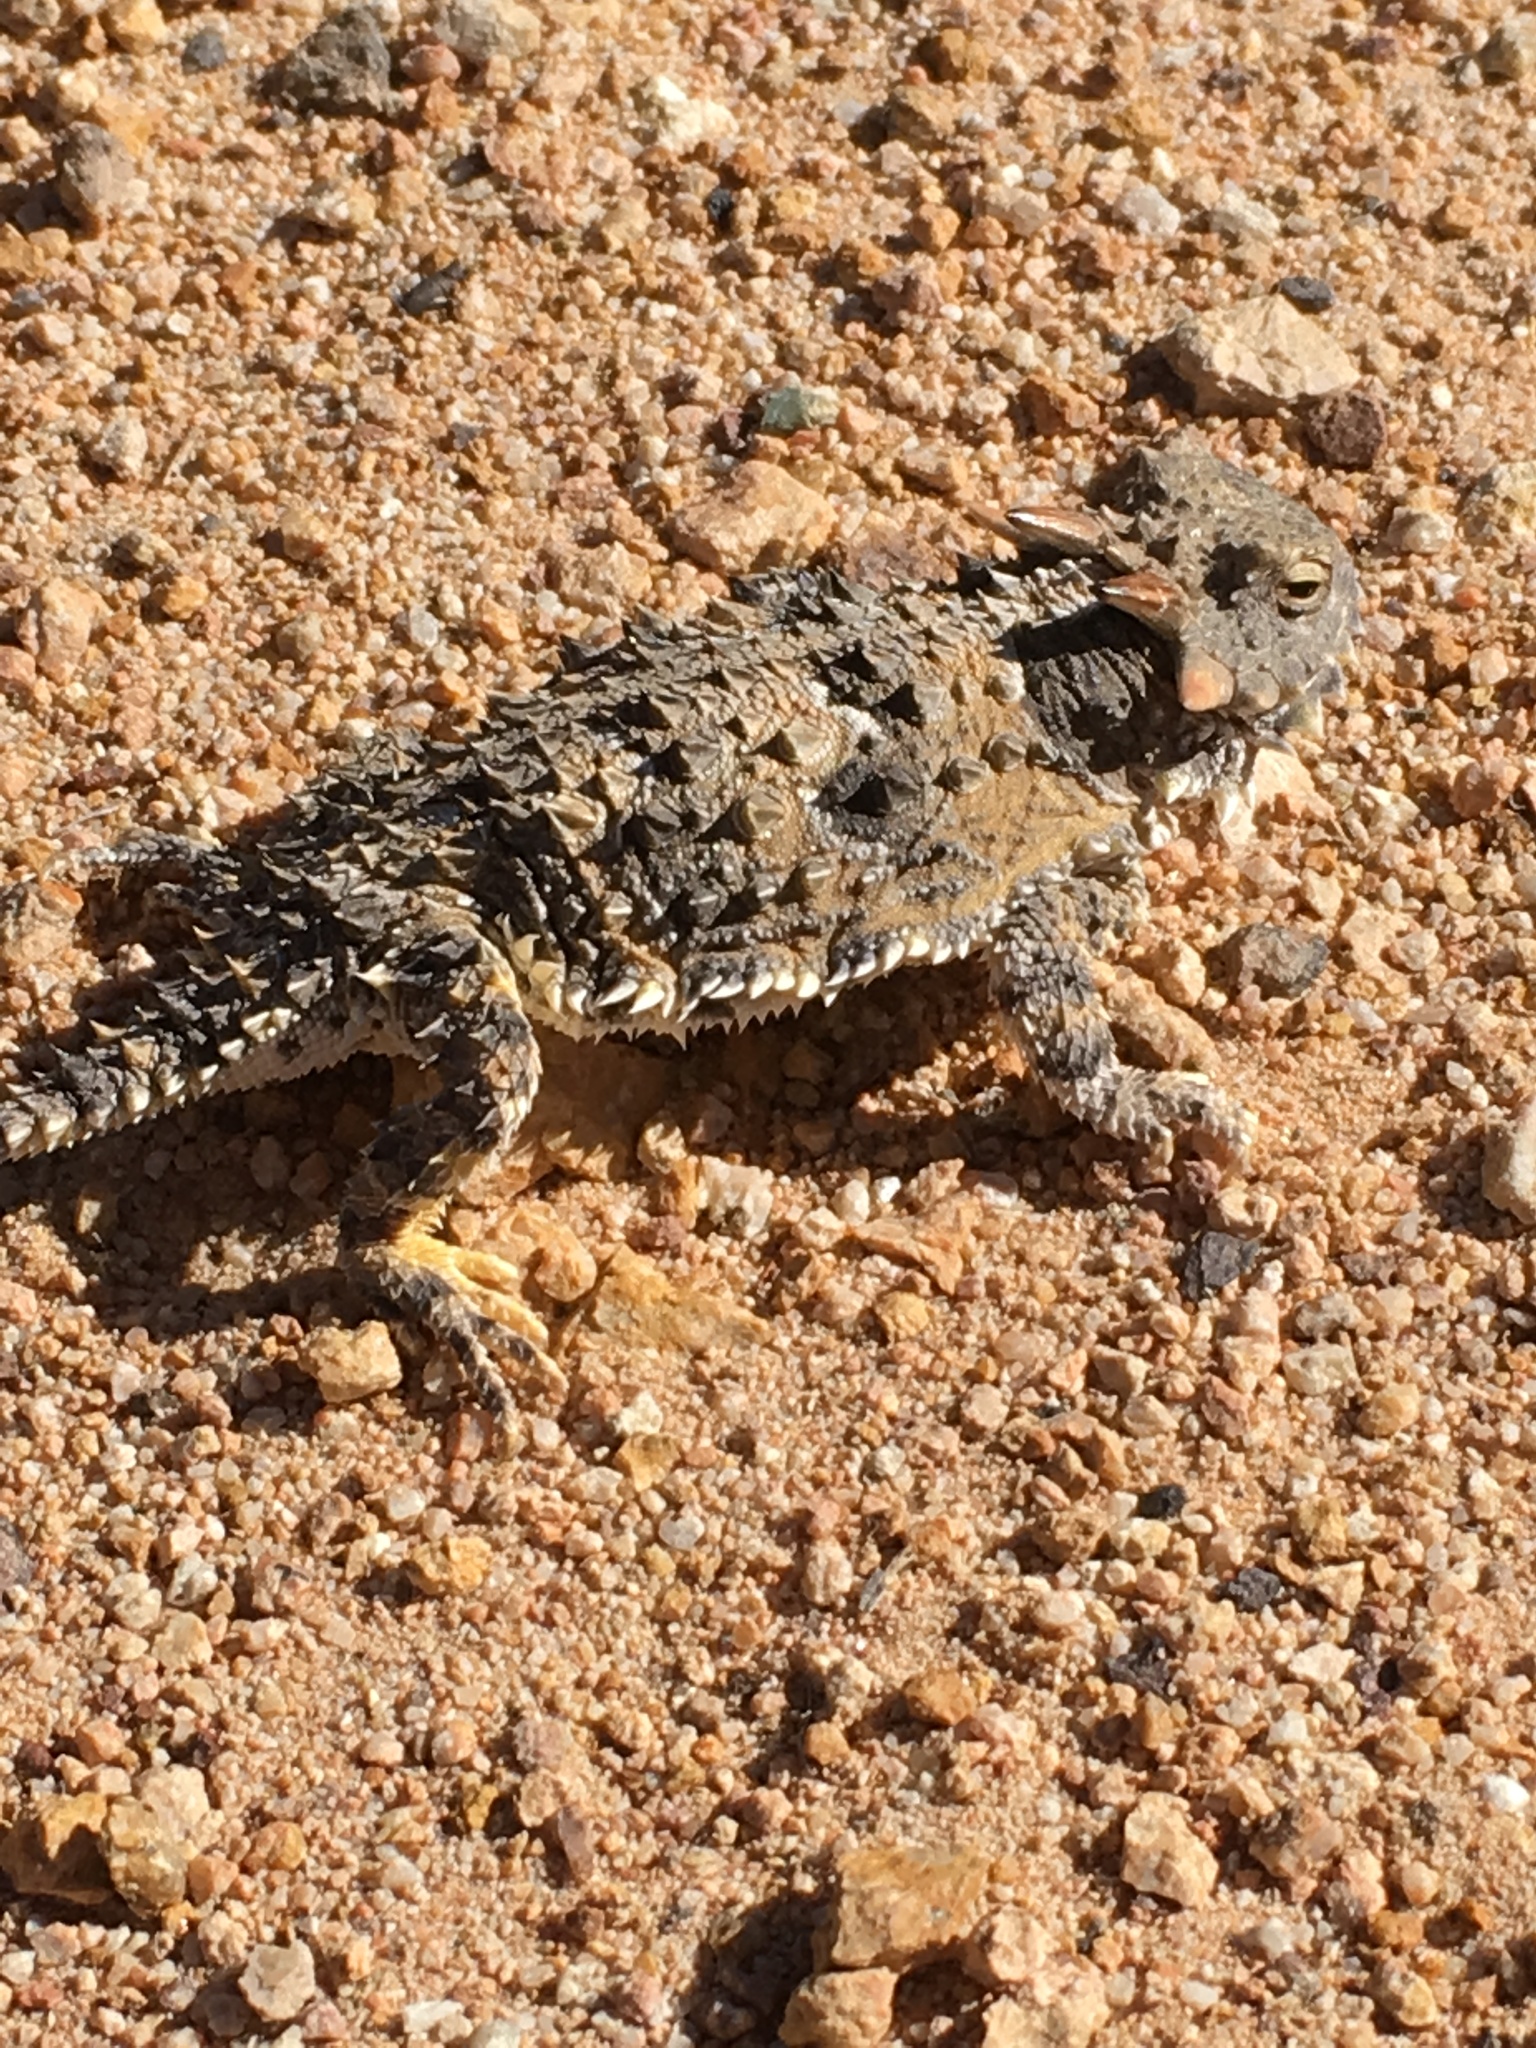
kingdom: Animalia
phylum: Chordata
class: Squamata
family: Phrynosomatidae
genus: Phrynosoma
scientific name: Phrynosoma blainvillii
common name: San diego horned lizard
